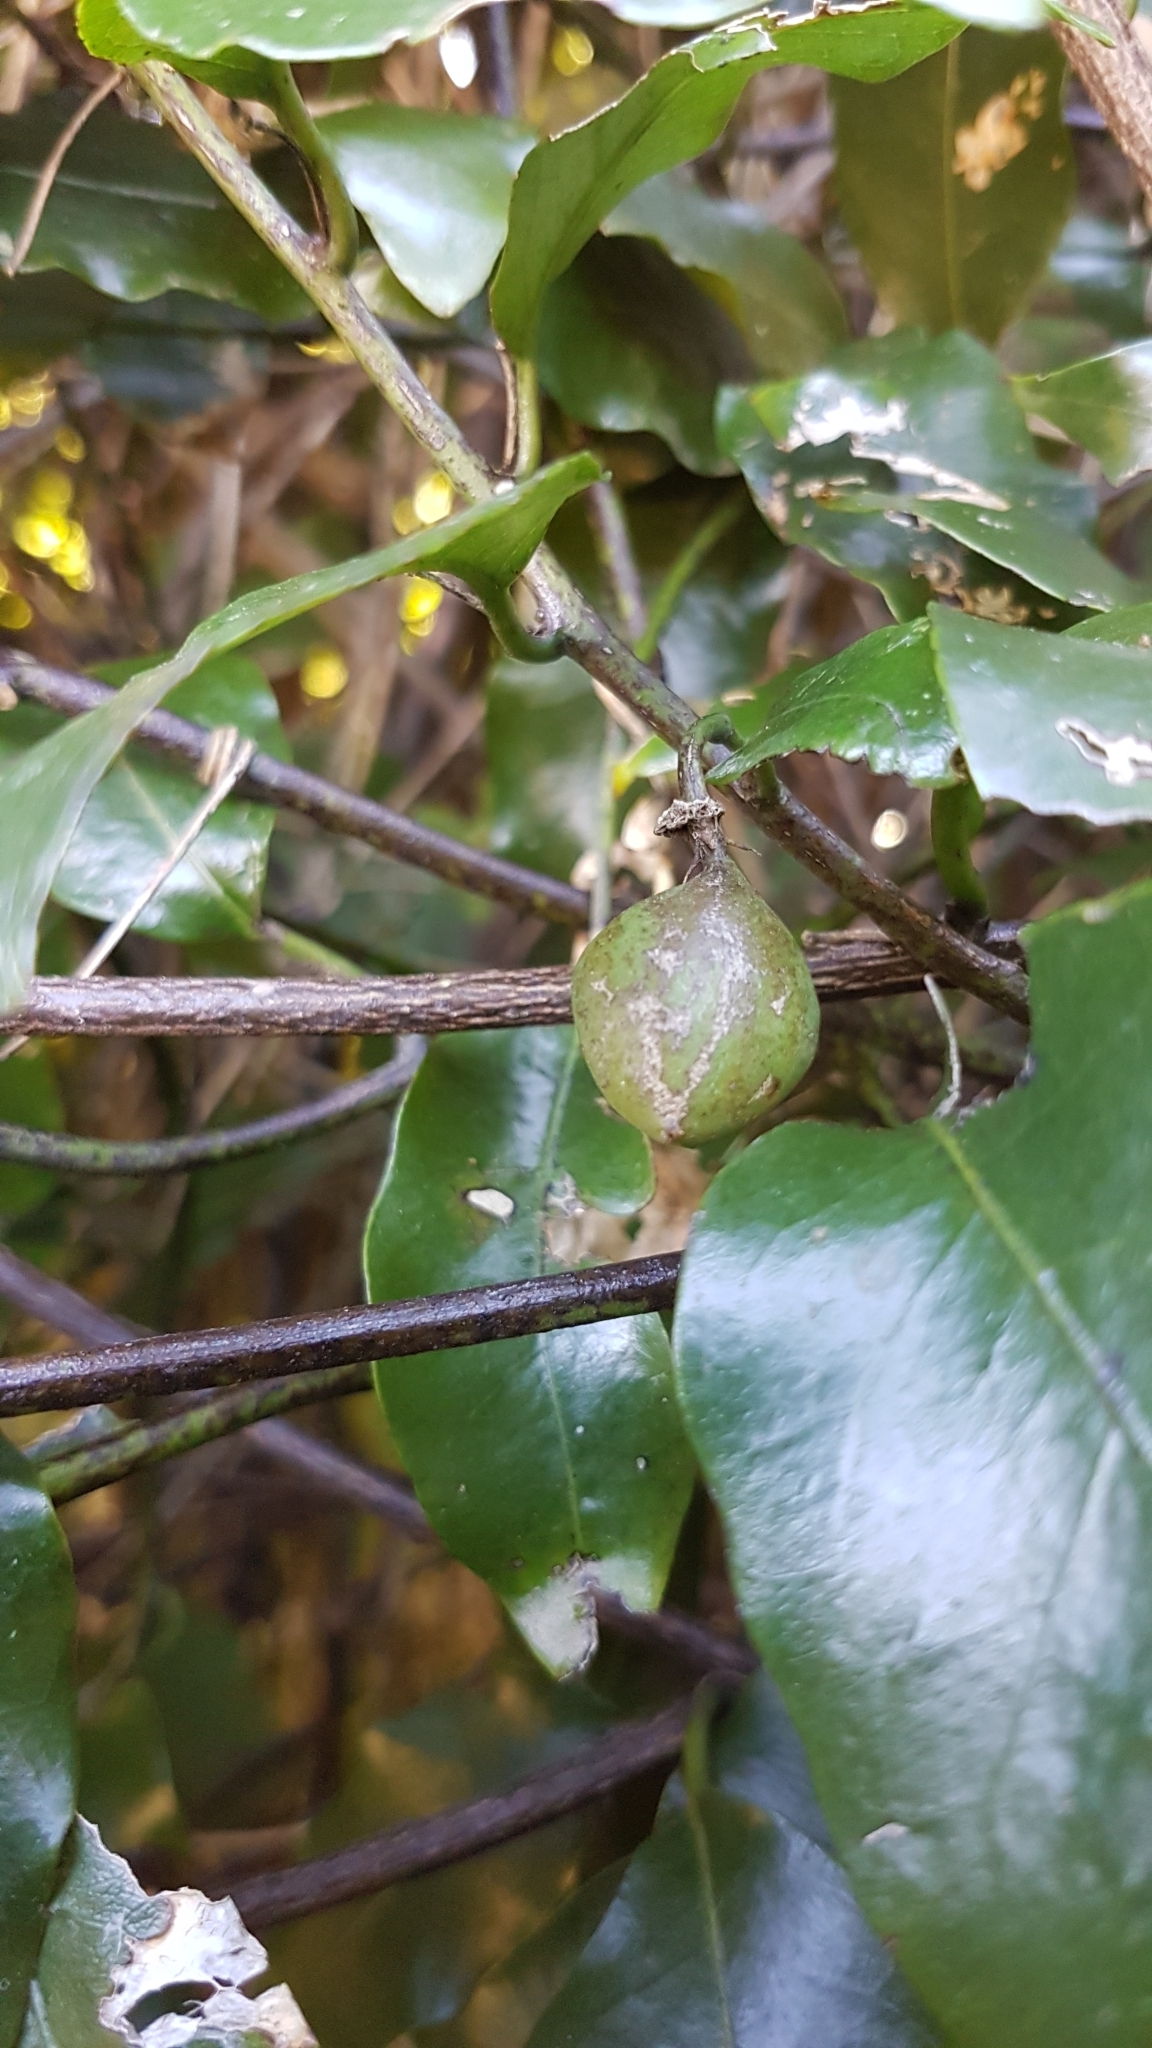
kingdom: Plantae
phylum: Tracheophyta
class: Magnoliopsida
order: Malpighiales
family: Passifloraceae
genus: Passiflora
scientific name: Passiflora tetrandra
